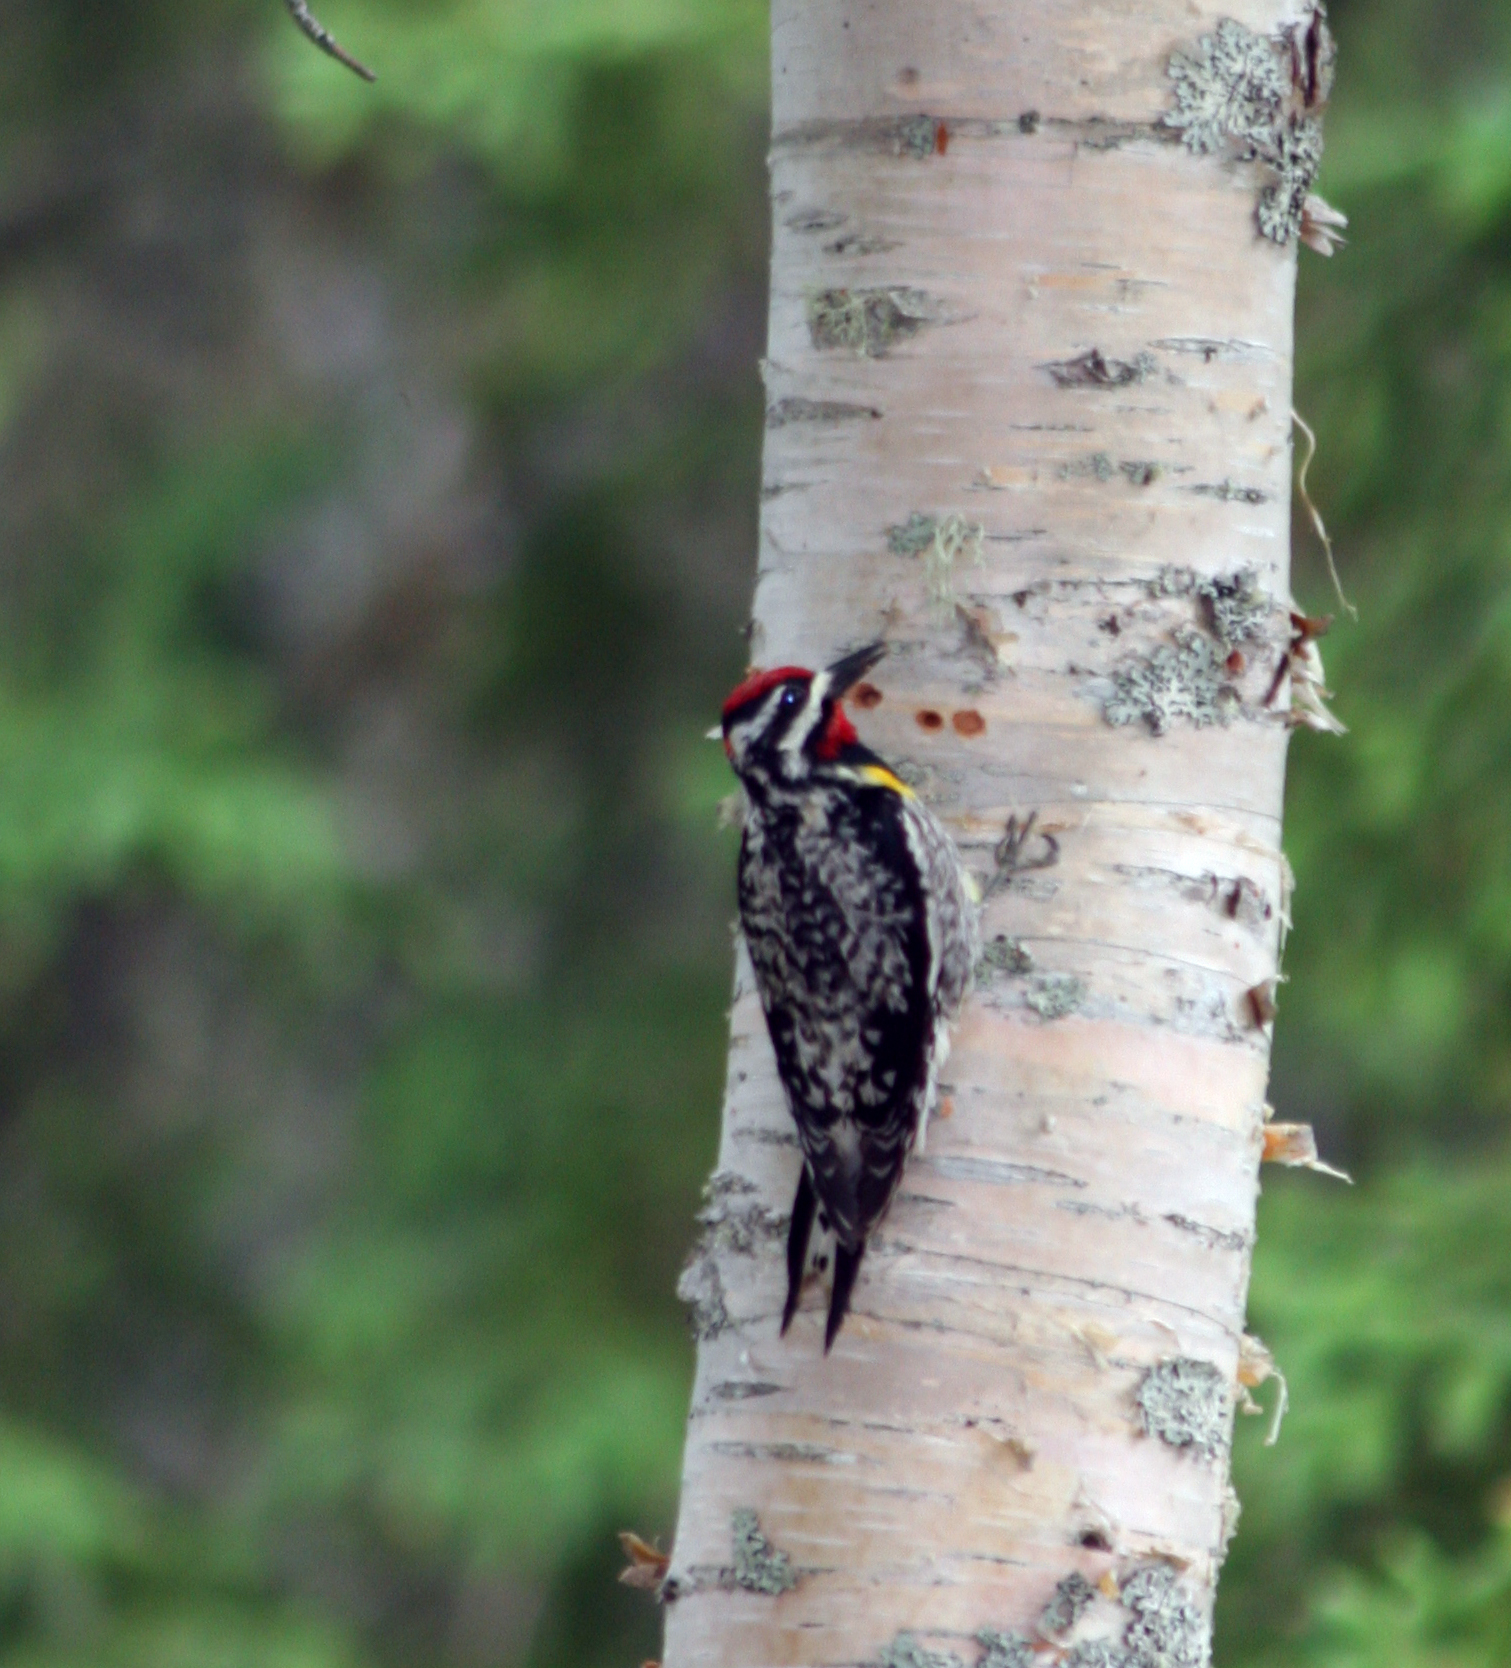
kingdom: Animalia
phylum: Chordata
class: Aves
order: Piciformes
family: Picidae
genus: Sphyrapicus
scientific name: Sphyrapicus varius
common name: Yellow-bellied sapsucker
